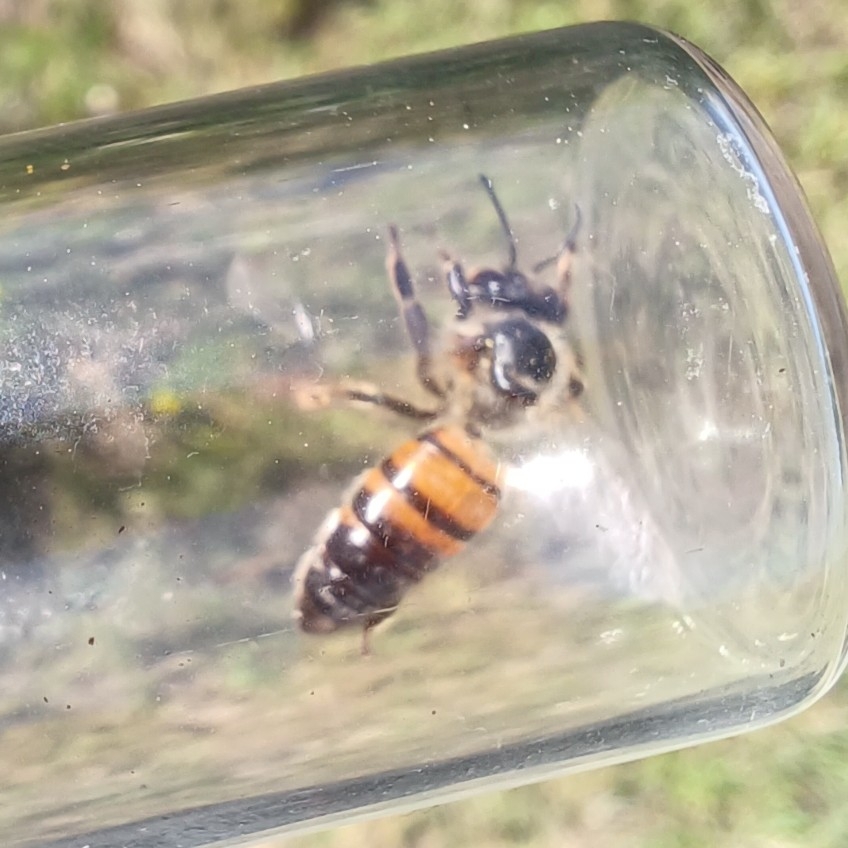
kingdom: Animalia
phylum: Arthropoda
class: Insecta
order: Hymenoptera
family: Apidae
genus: Apis
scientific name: Apis mellifera
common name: Honey bee
